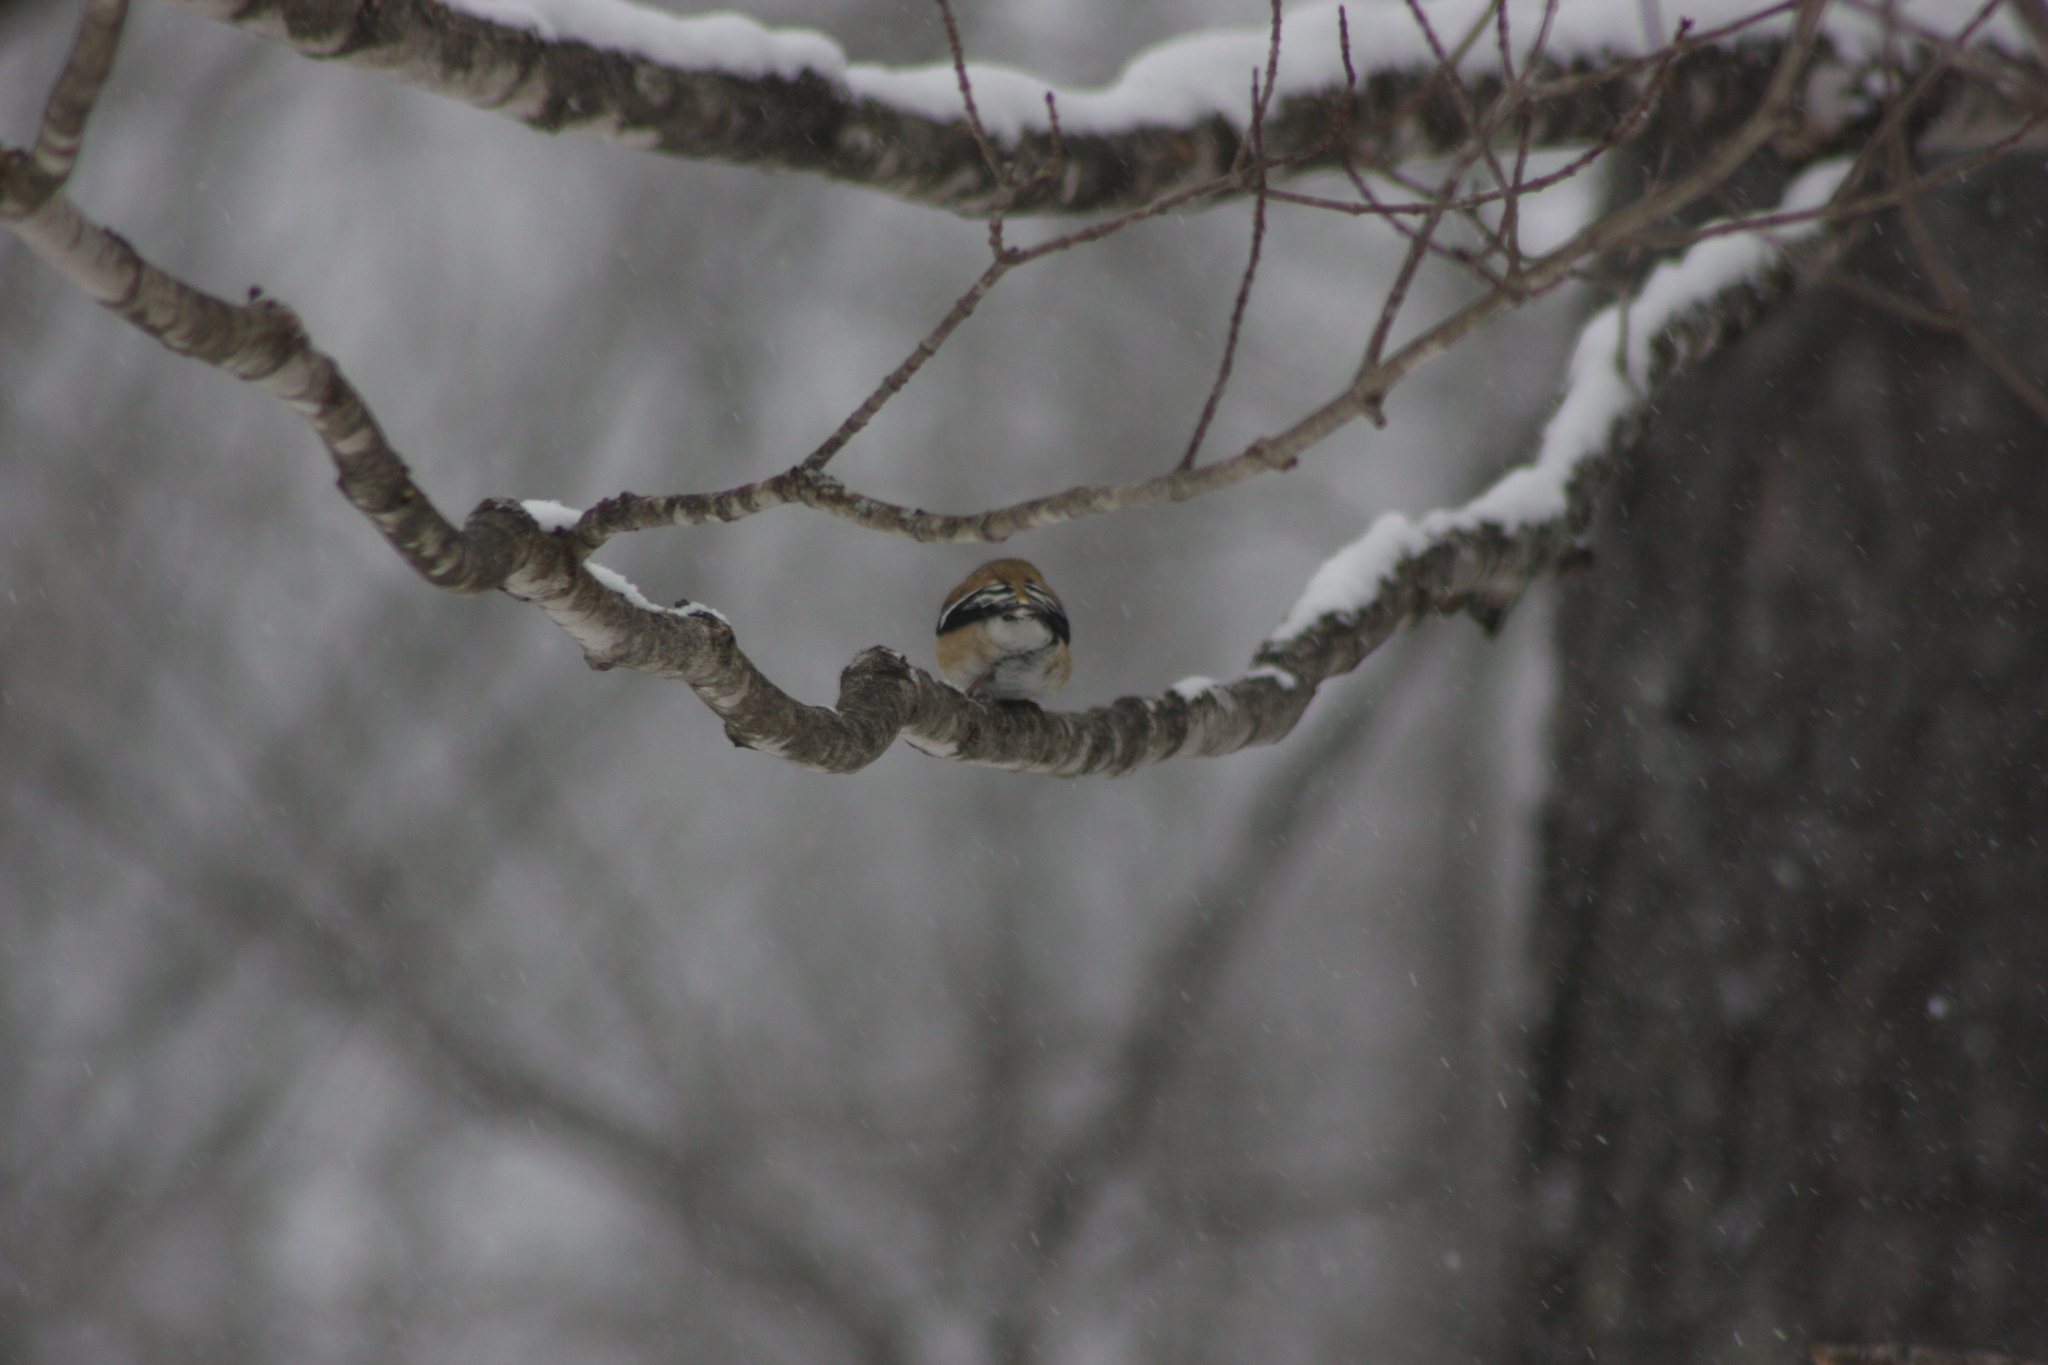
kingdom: Animalia
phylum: Chordata
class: Aves
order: Passeriformes
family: Fringillidae
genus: Spinus
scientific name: Spinus tristis
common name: American goldfinch
